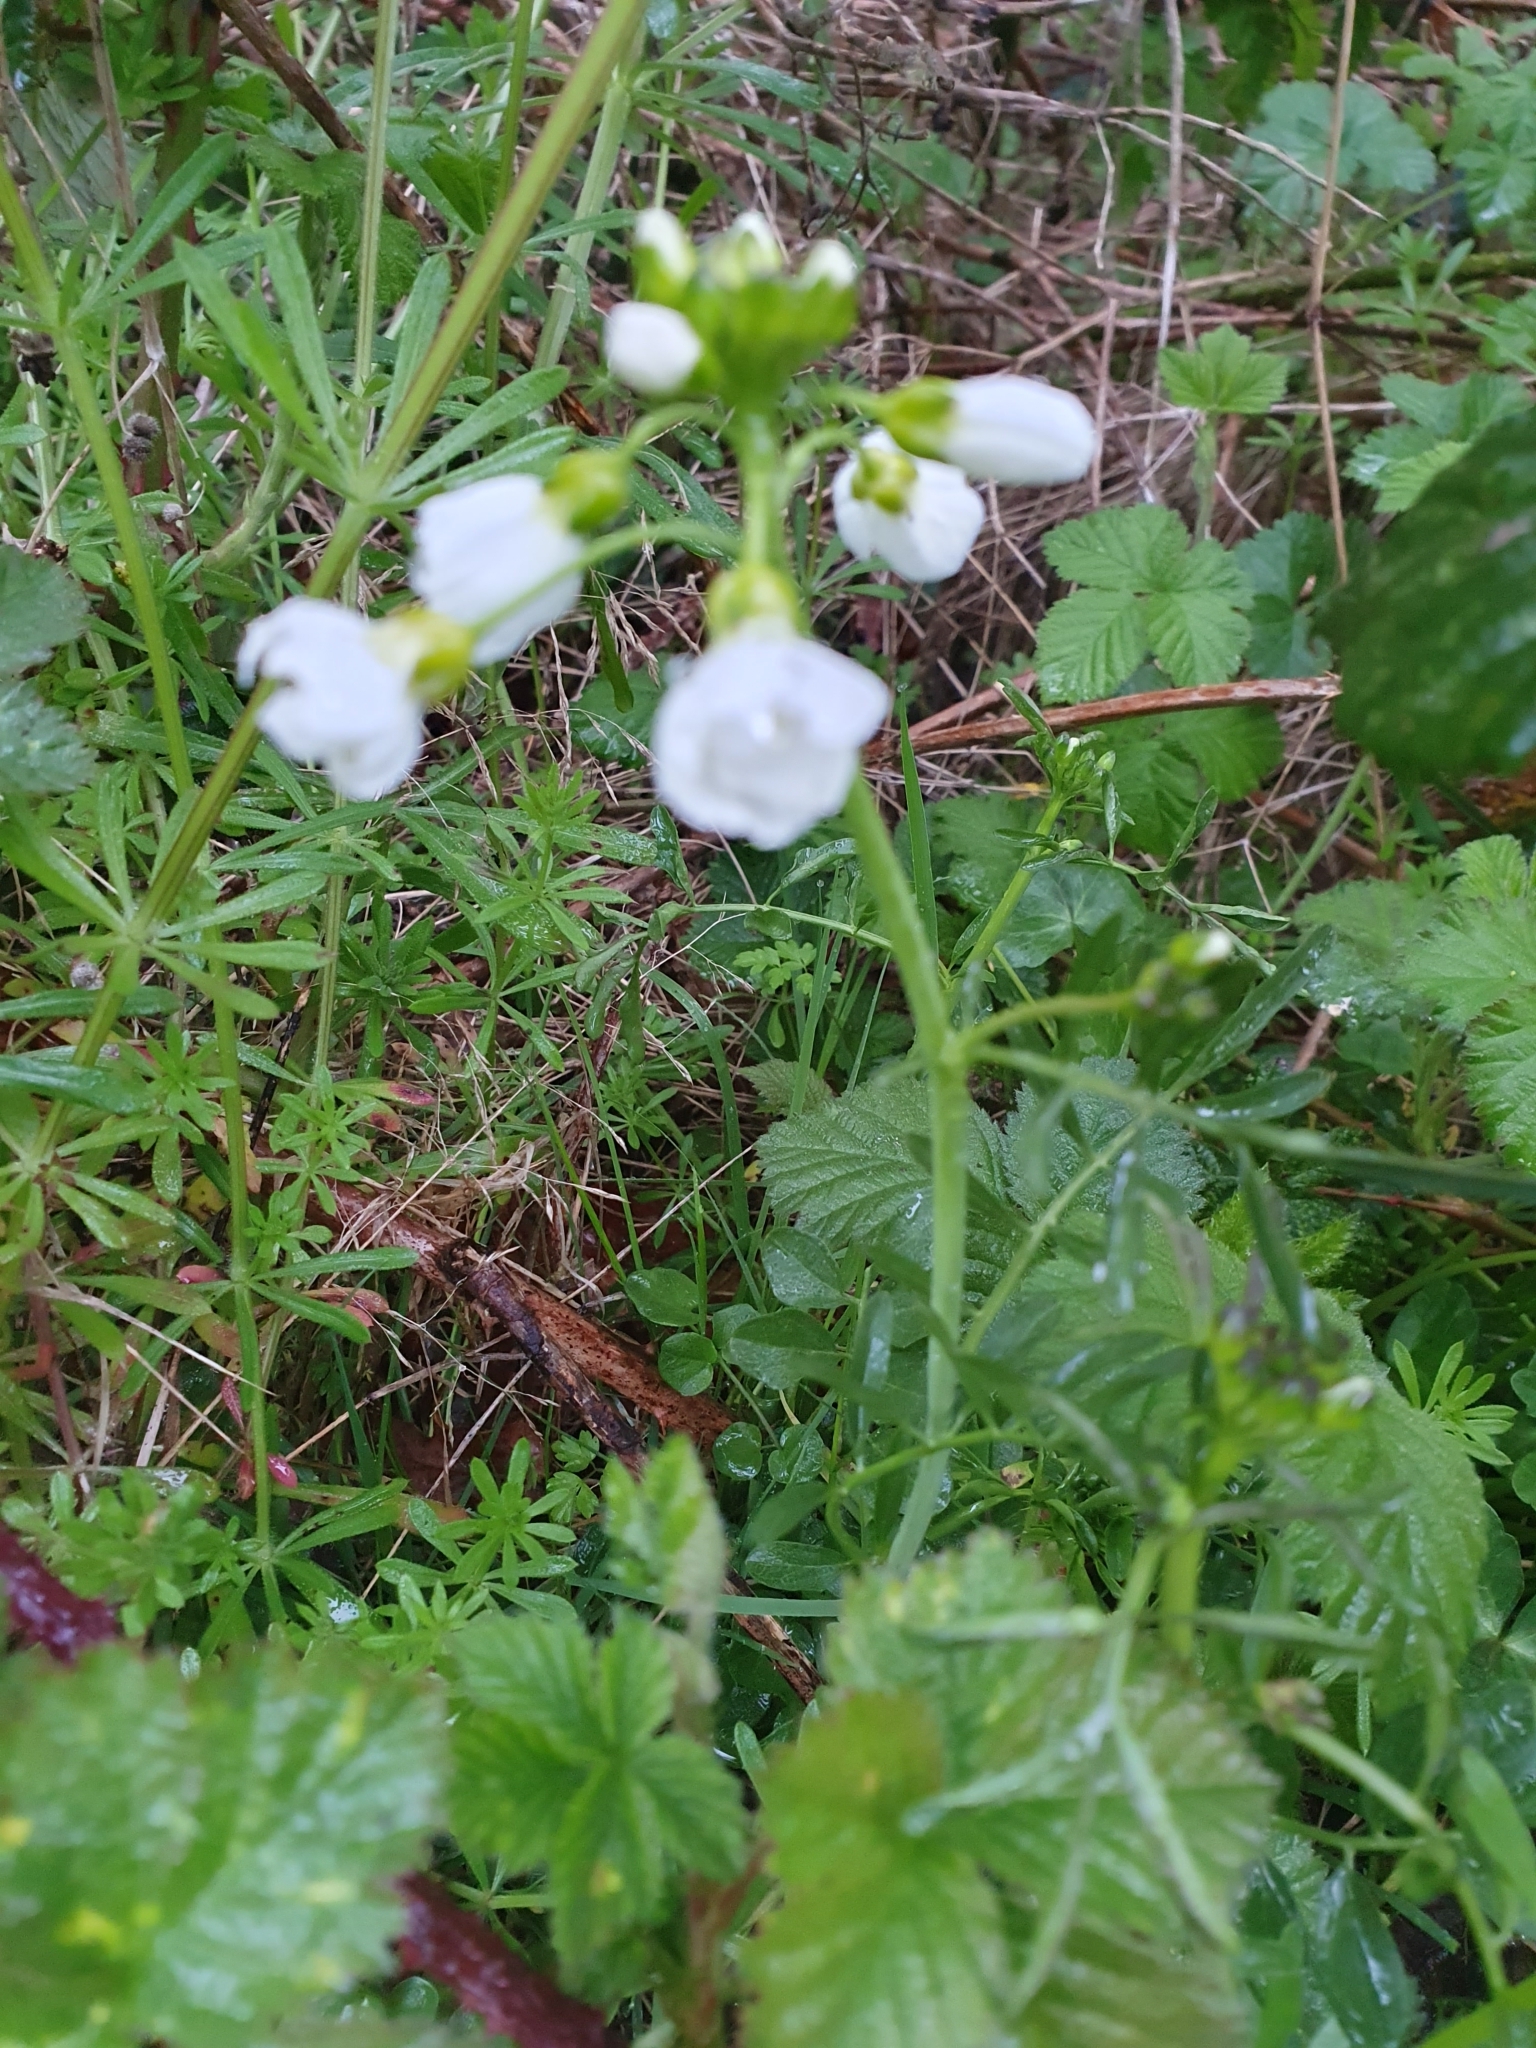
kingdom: Plantae
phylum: Tracheophyta
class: Magnoliopsida
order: Brassicales
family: Brassicaceae
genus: Cardamine
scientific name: Cardamine pratensis
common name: Cuckoo flower
